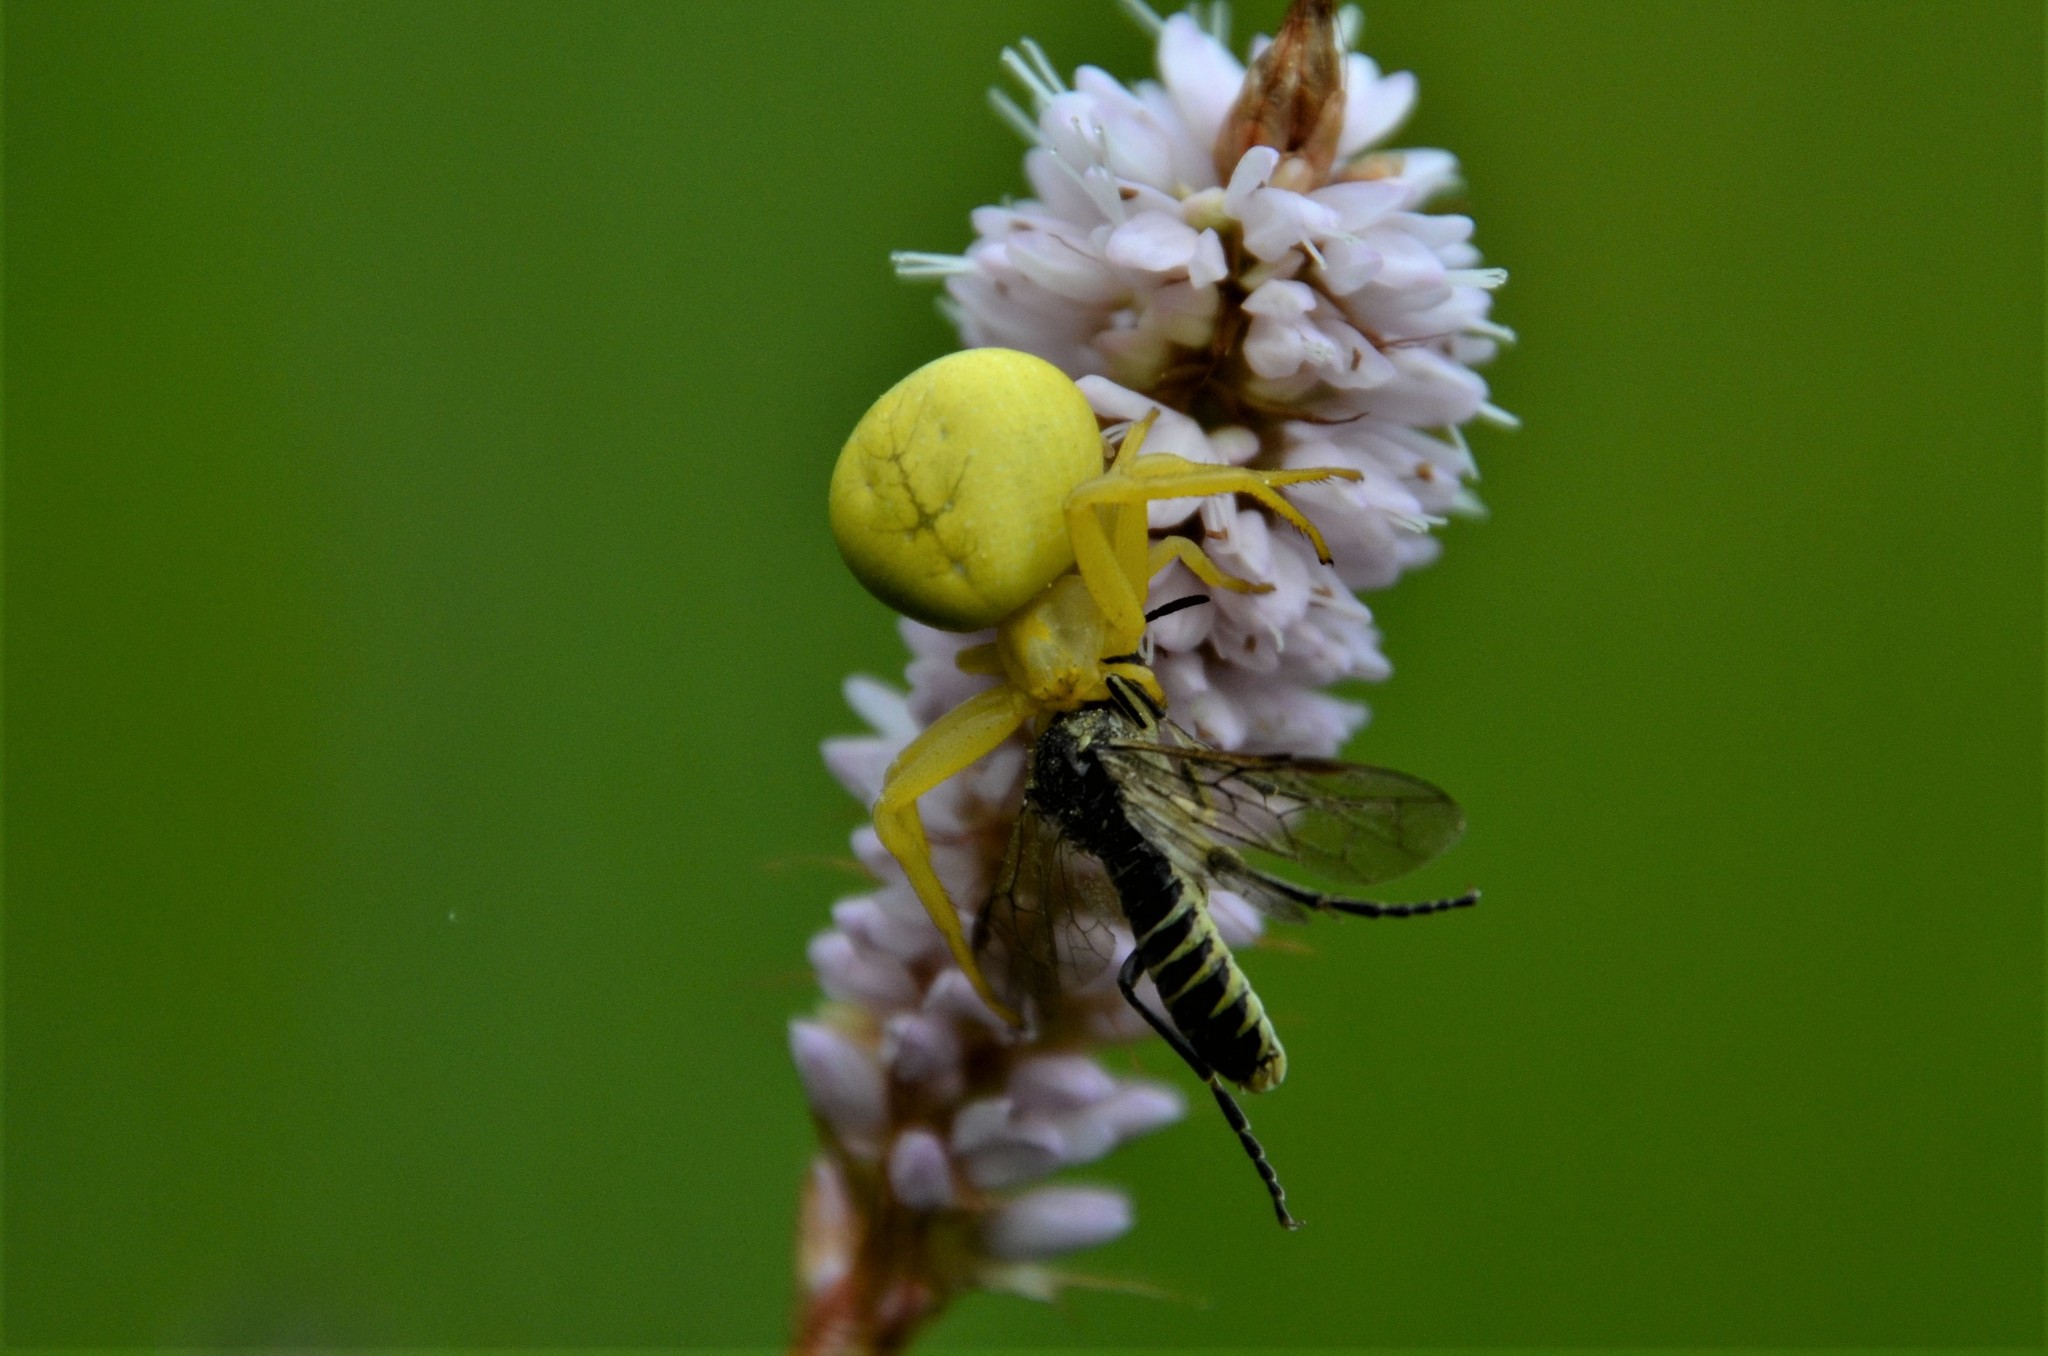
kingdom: Animalia
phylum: Arthropoda
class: Arachnida
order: Araneae
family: Thomisidae
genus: Misumena
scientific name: Misumena vatia
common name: Goldenrod crab spider
